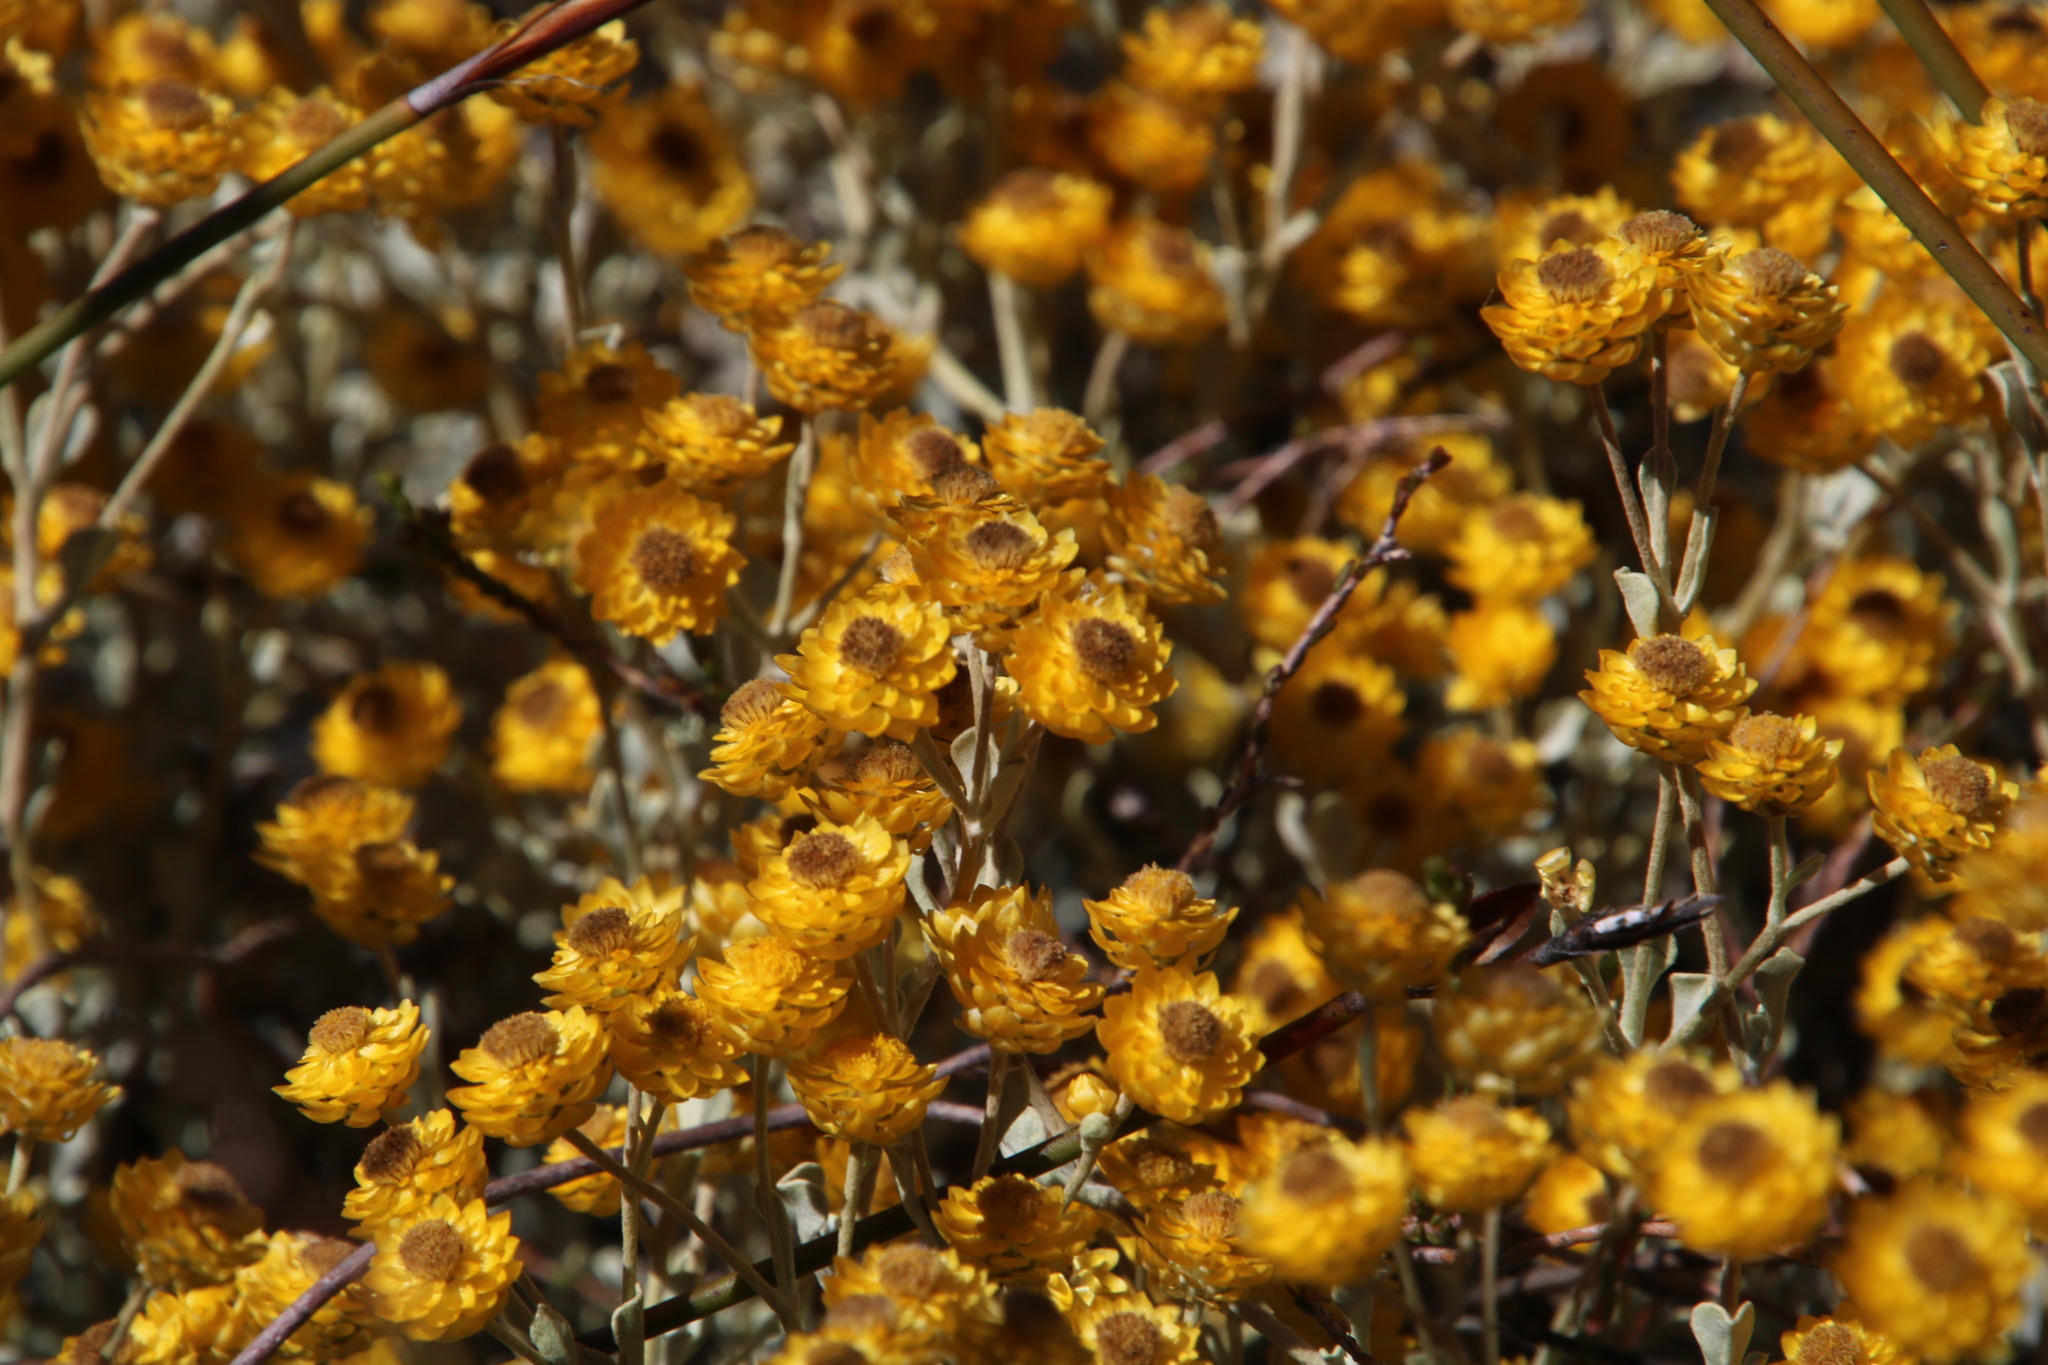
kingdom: Plantae
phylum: Tracheophyta
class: Magnoliopsida
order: Asterales
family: Asteraceae
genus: Helichrysum
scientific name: Helichrysum acrophilum
